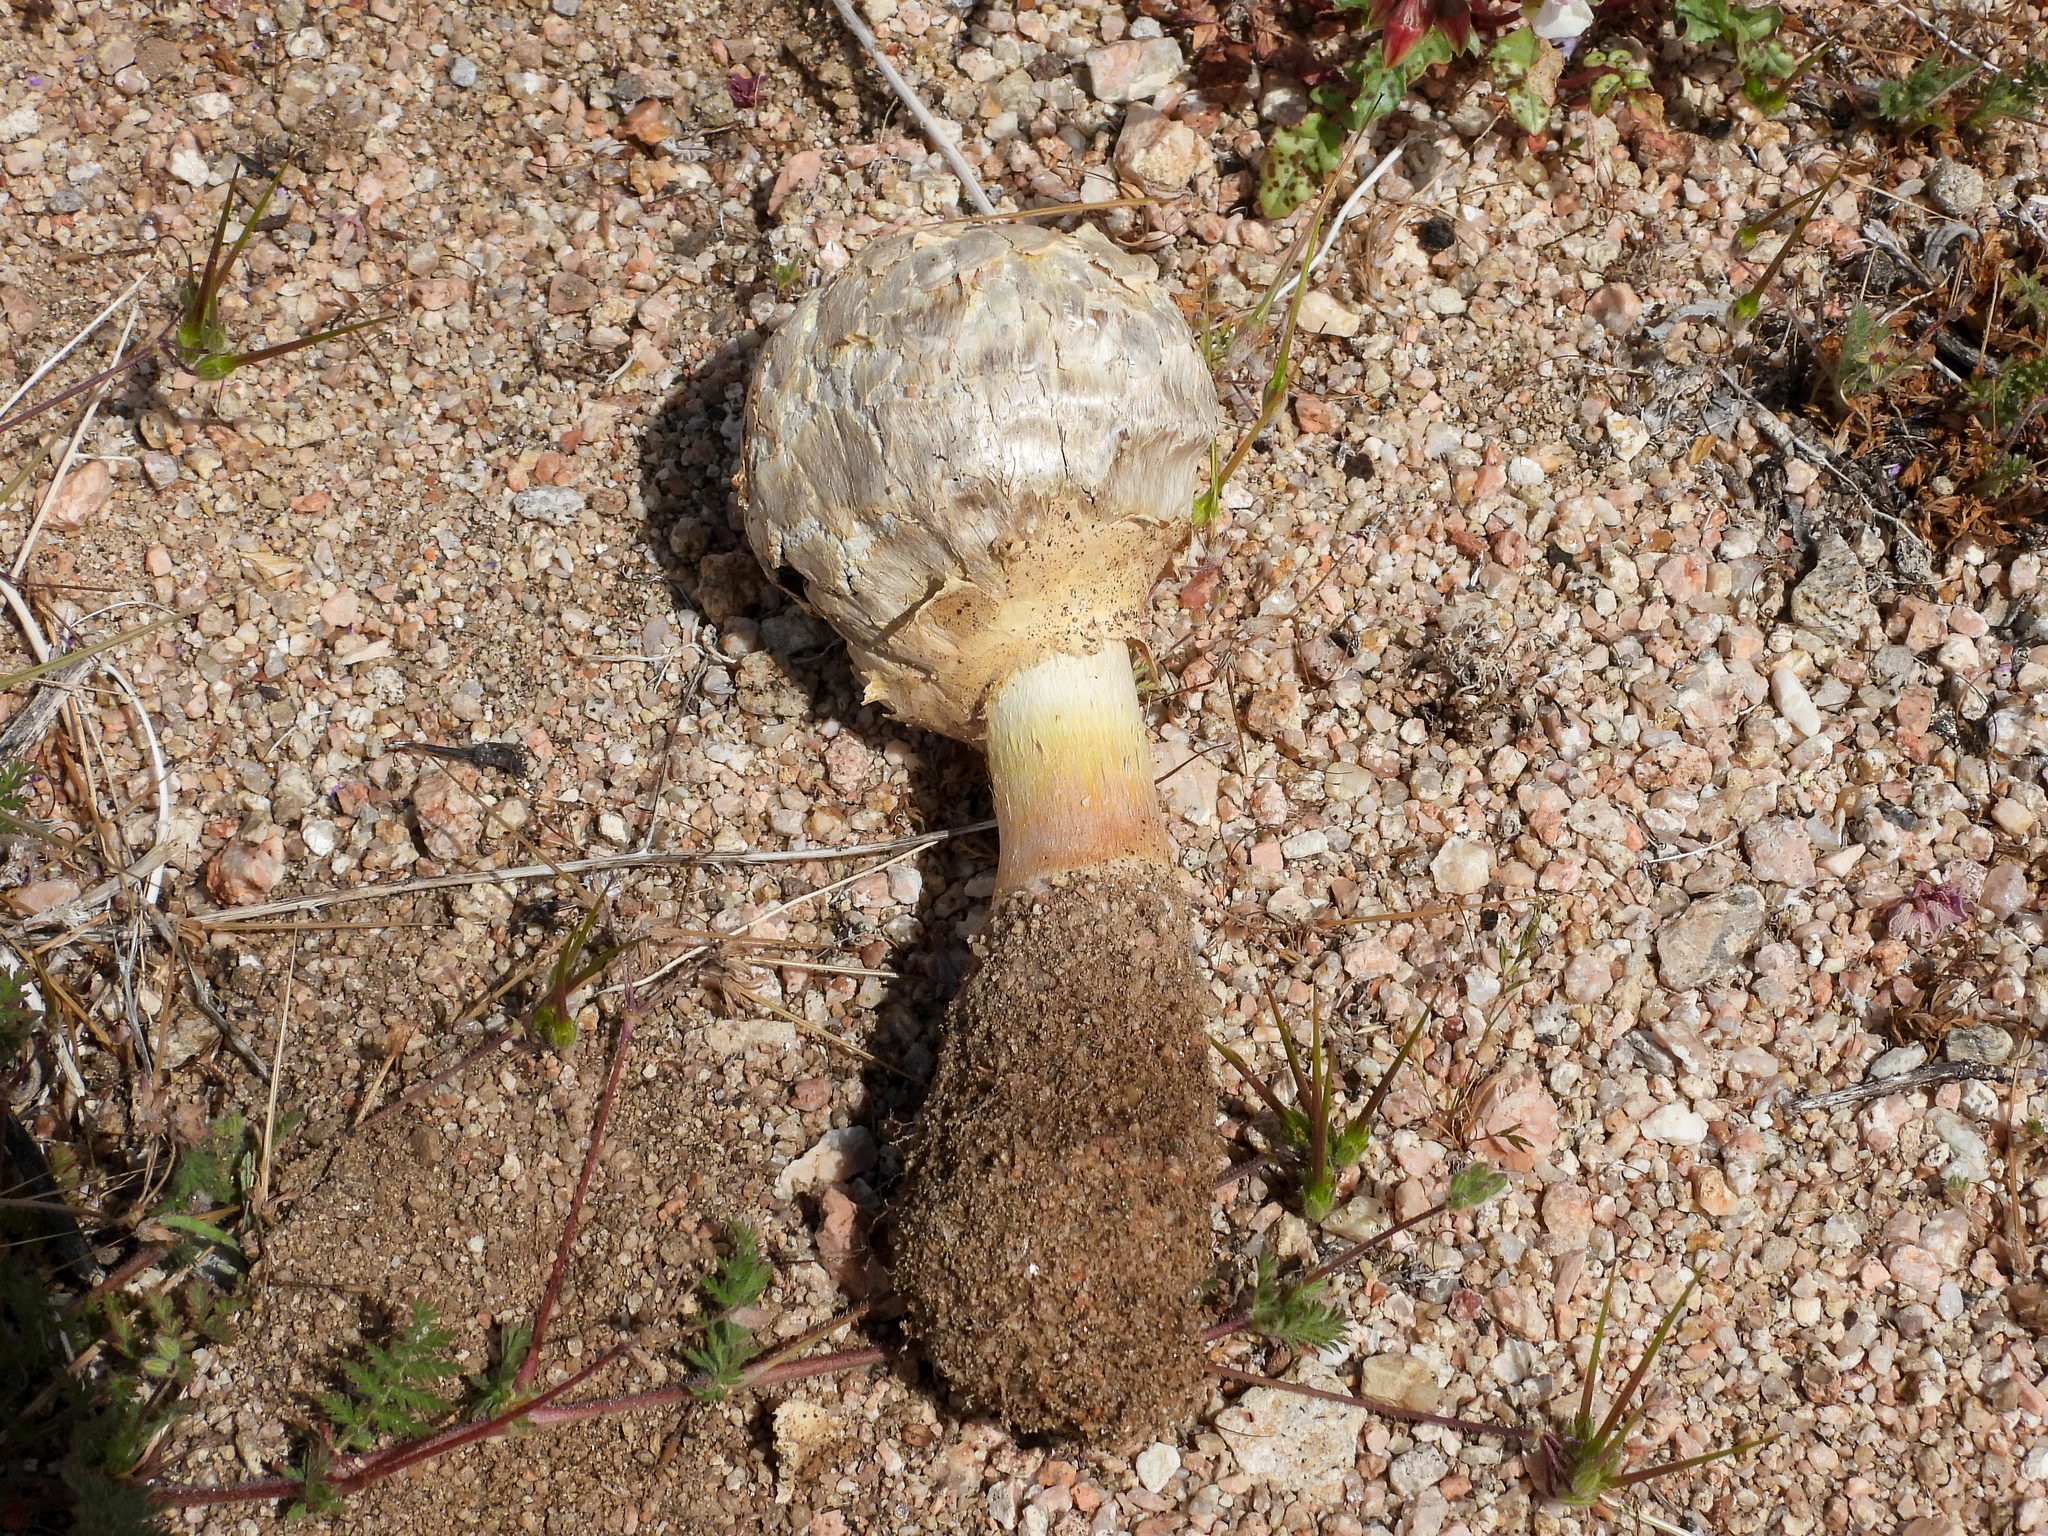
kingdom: Fungi
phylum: Basidiomycota
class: Agaricomycetes
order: Agaricales
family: Agaricaceae
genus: Agaricus
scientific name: Agaricus deserticola
